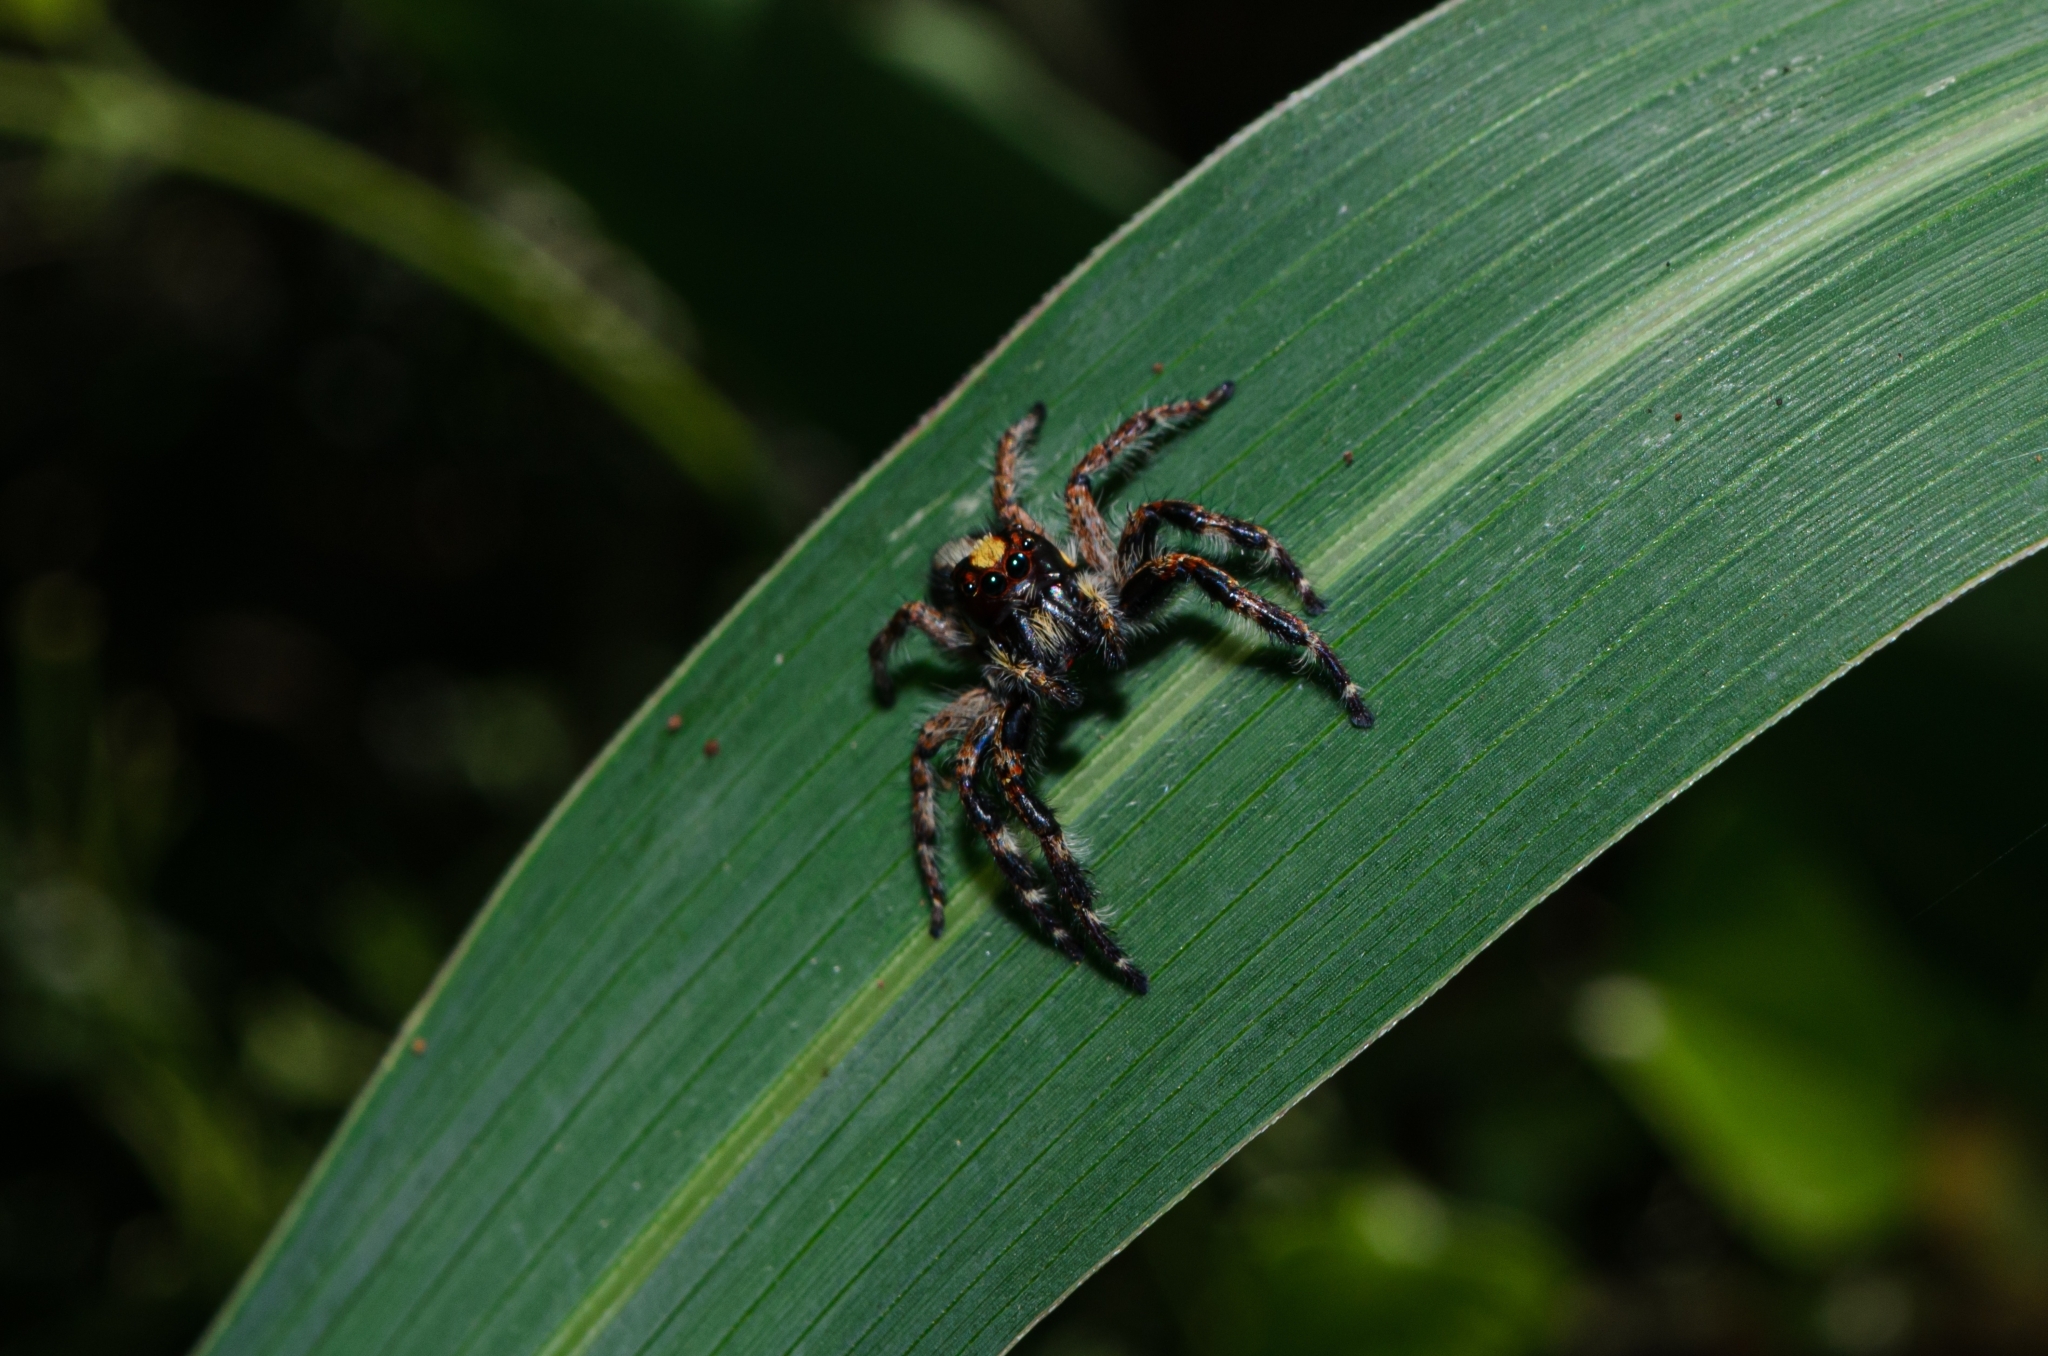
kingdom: Animalia
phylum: Arthropoda
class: Arachnida
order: Araneae
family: Salticidae
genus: Megafreya
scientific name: Megafreya sutrix
